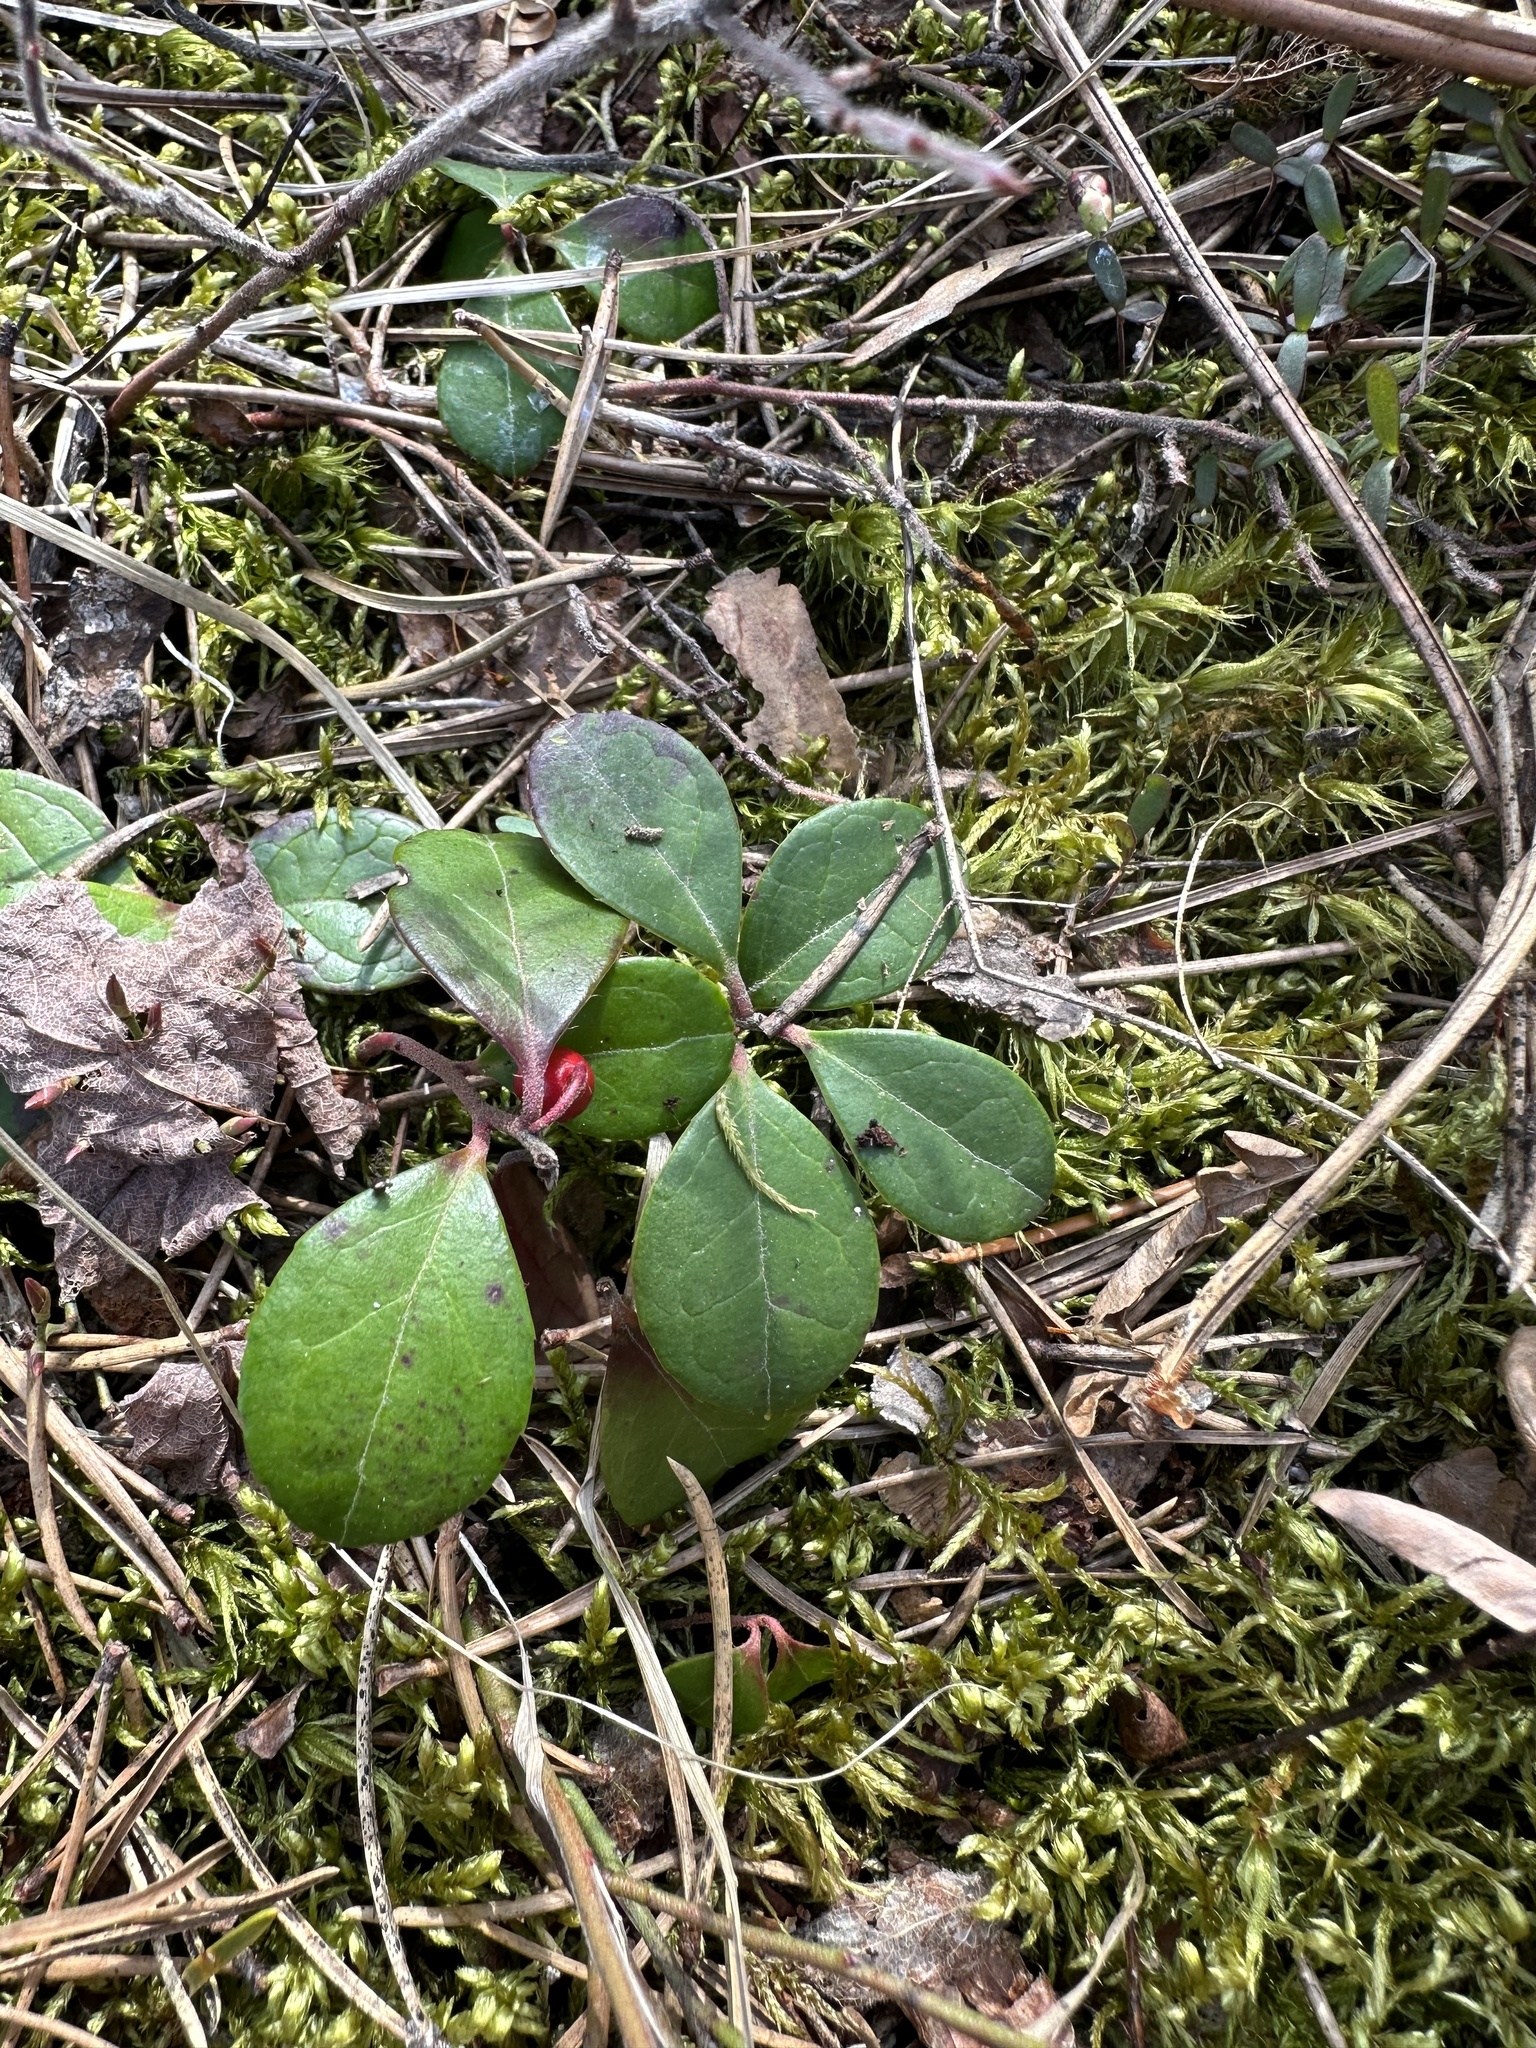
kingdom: Plantae
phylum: Tracheophyta
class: Magnoliopsida
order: Ericales
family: Ericaceae
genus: Gaultheria
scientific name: Gaultheria procumbens
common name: Checkerberry
